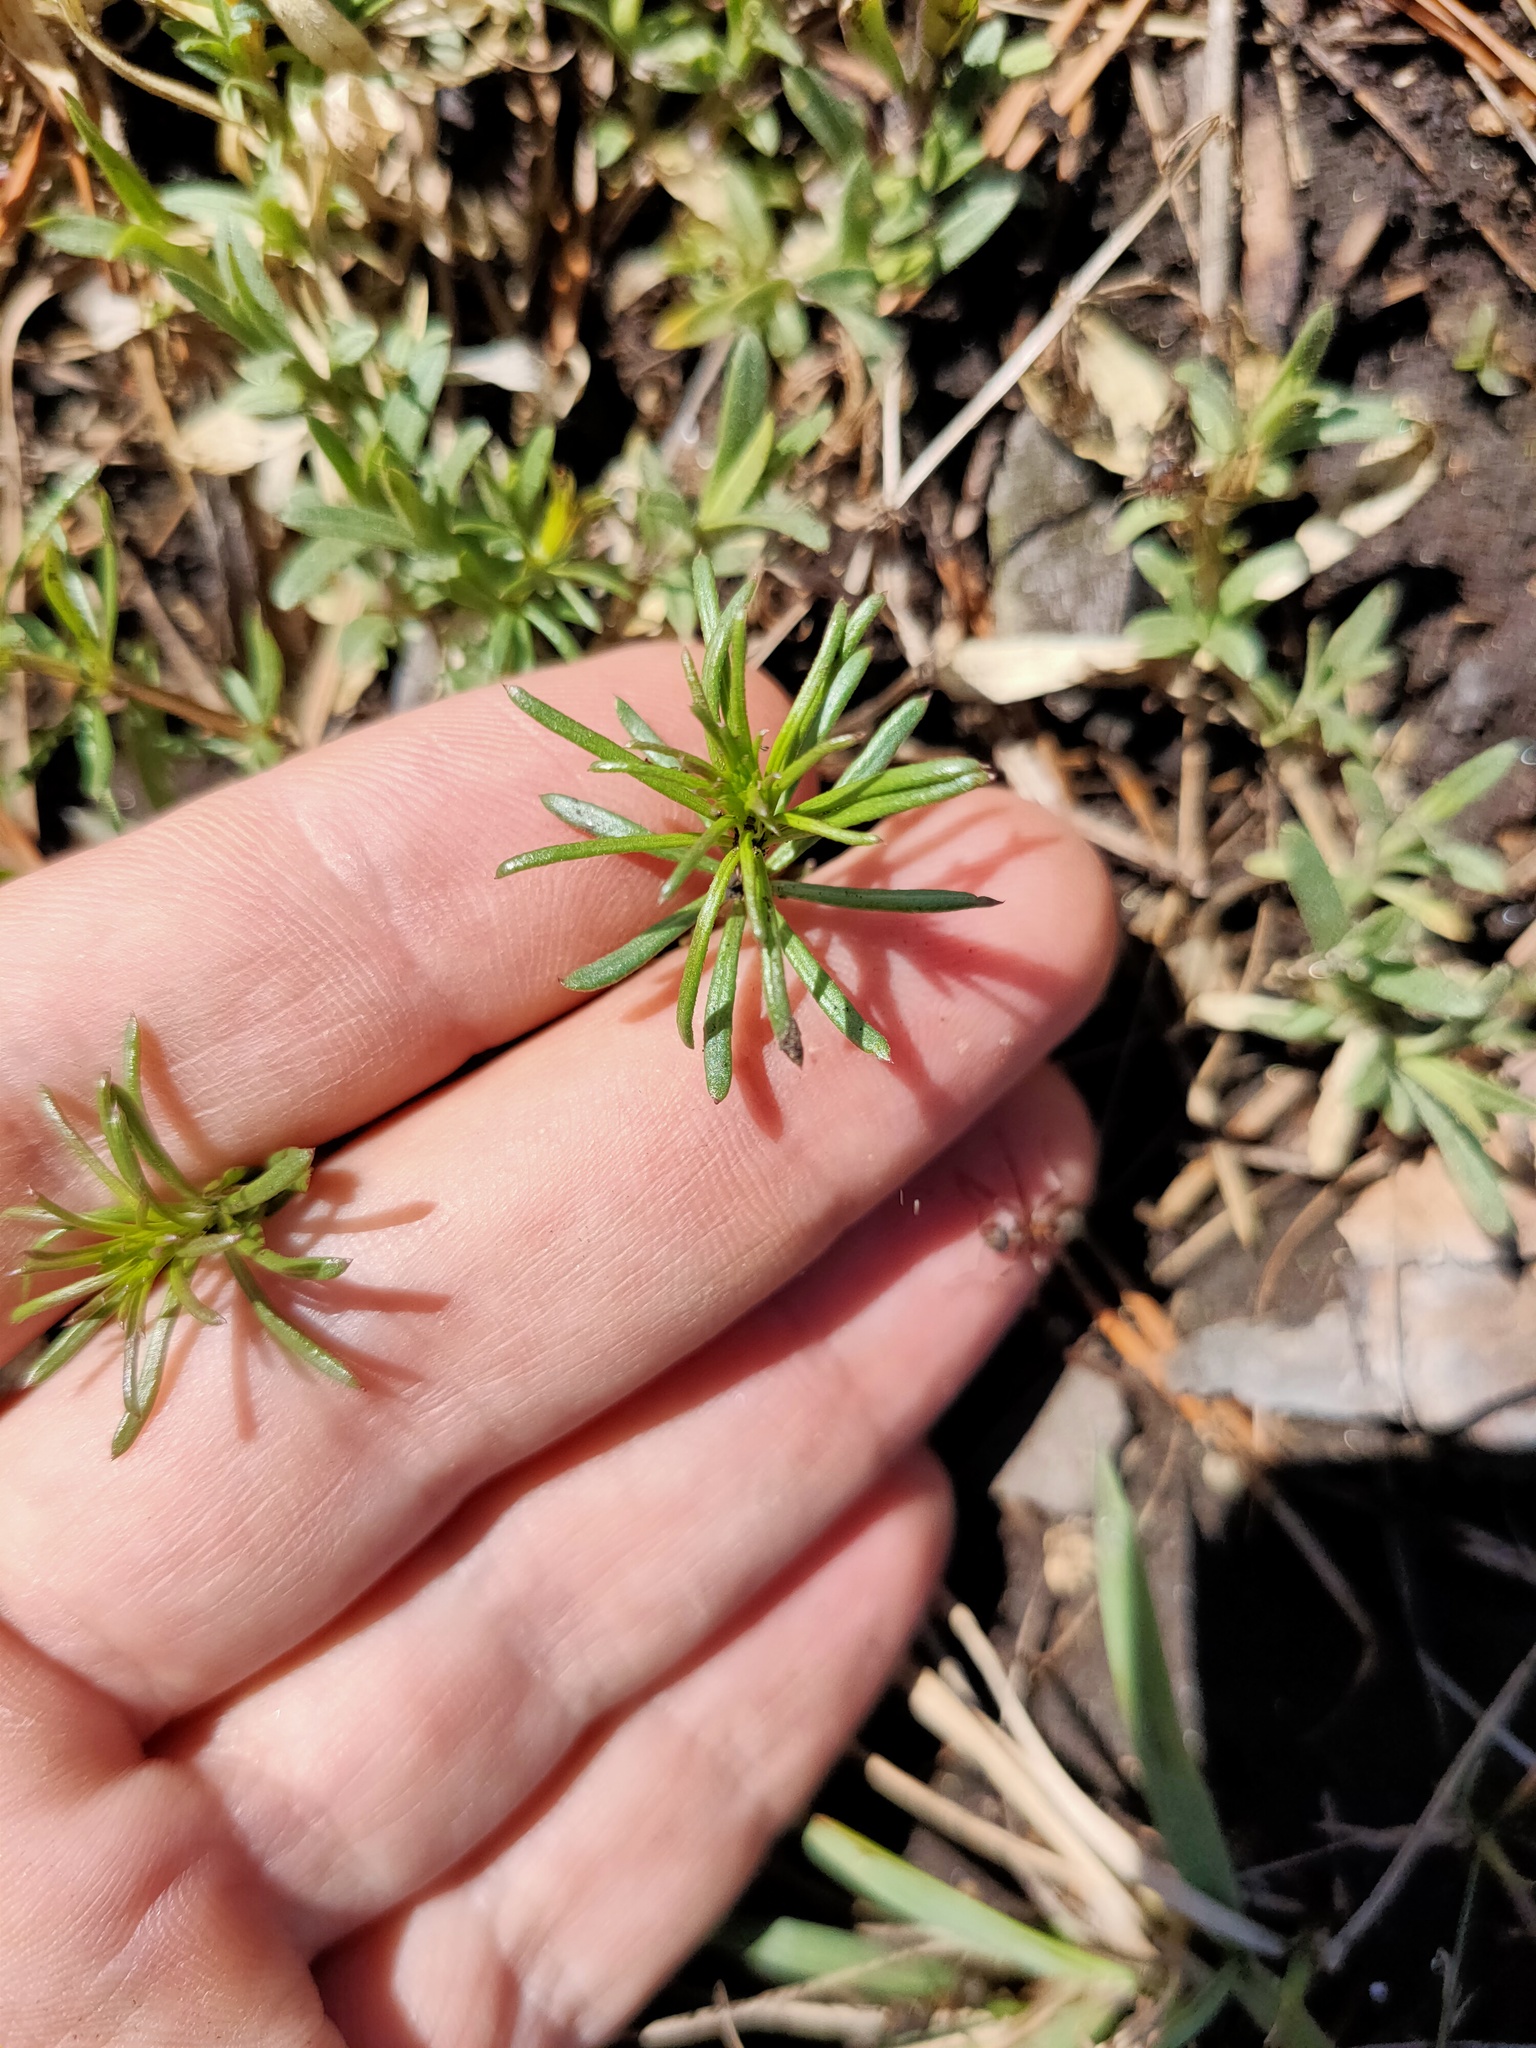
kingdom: Plantae
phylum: Tracheophyta
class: Magnoliopsida
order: Gentianales
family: Rubiaceae
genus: Galium
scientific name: Galium verum
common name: Lady's bedstraw
